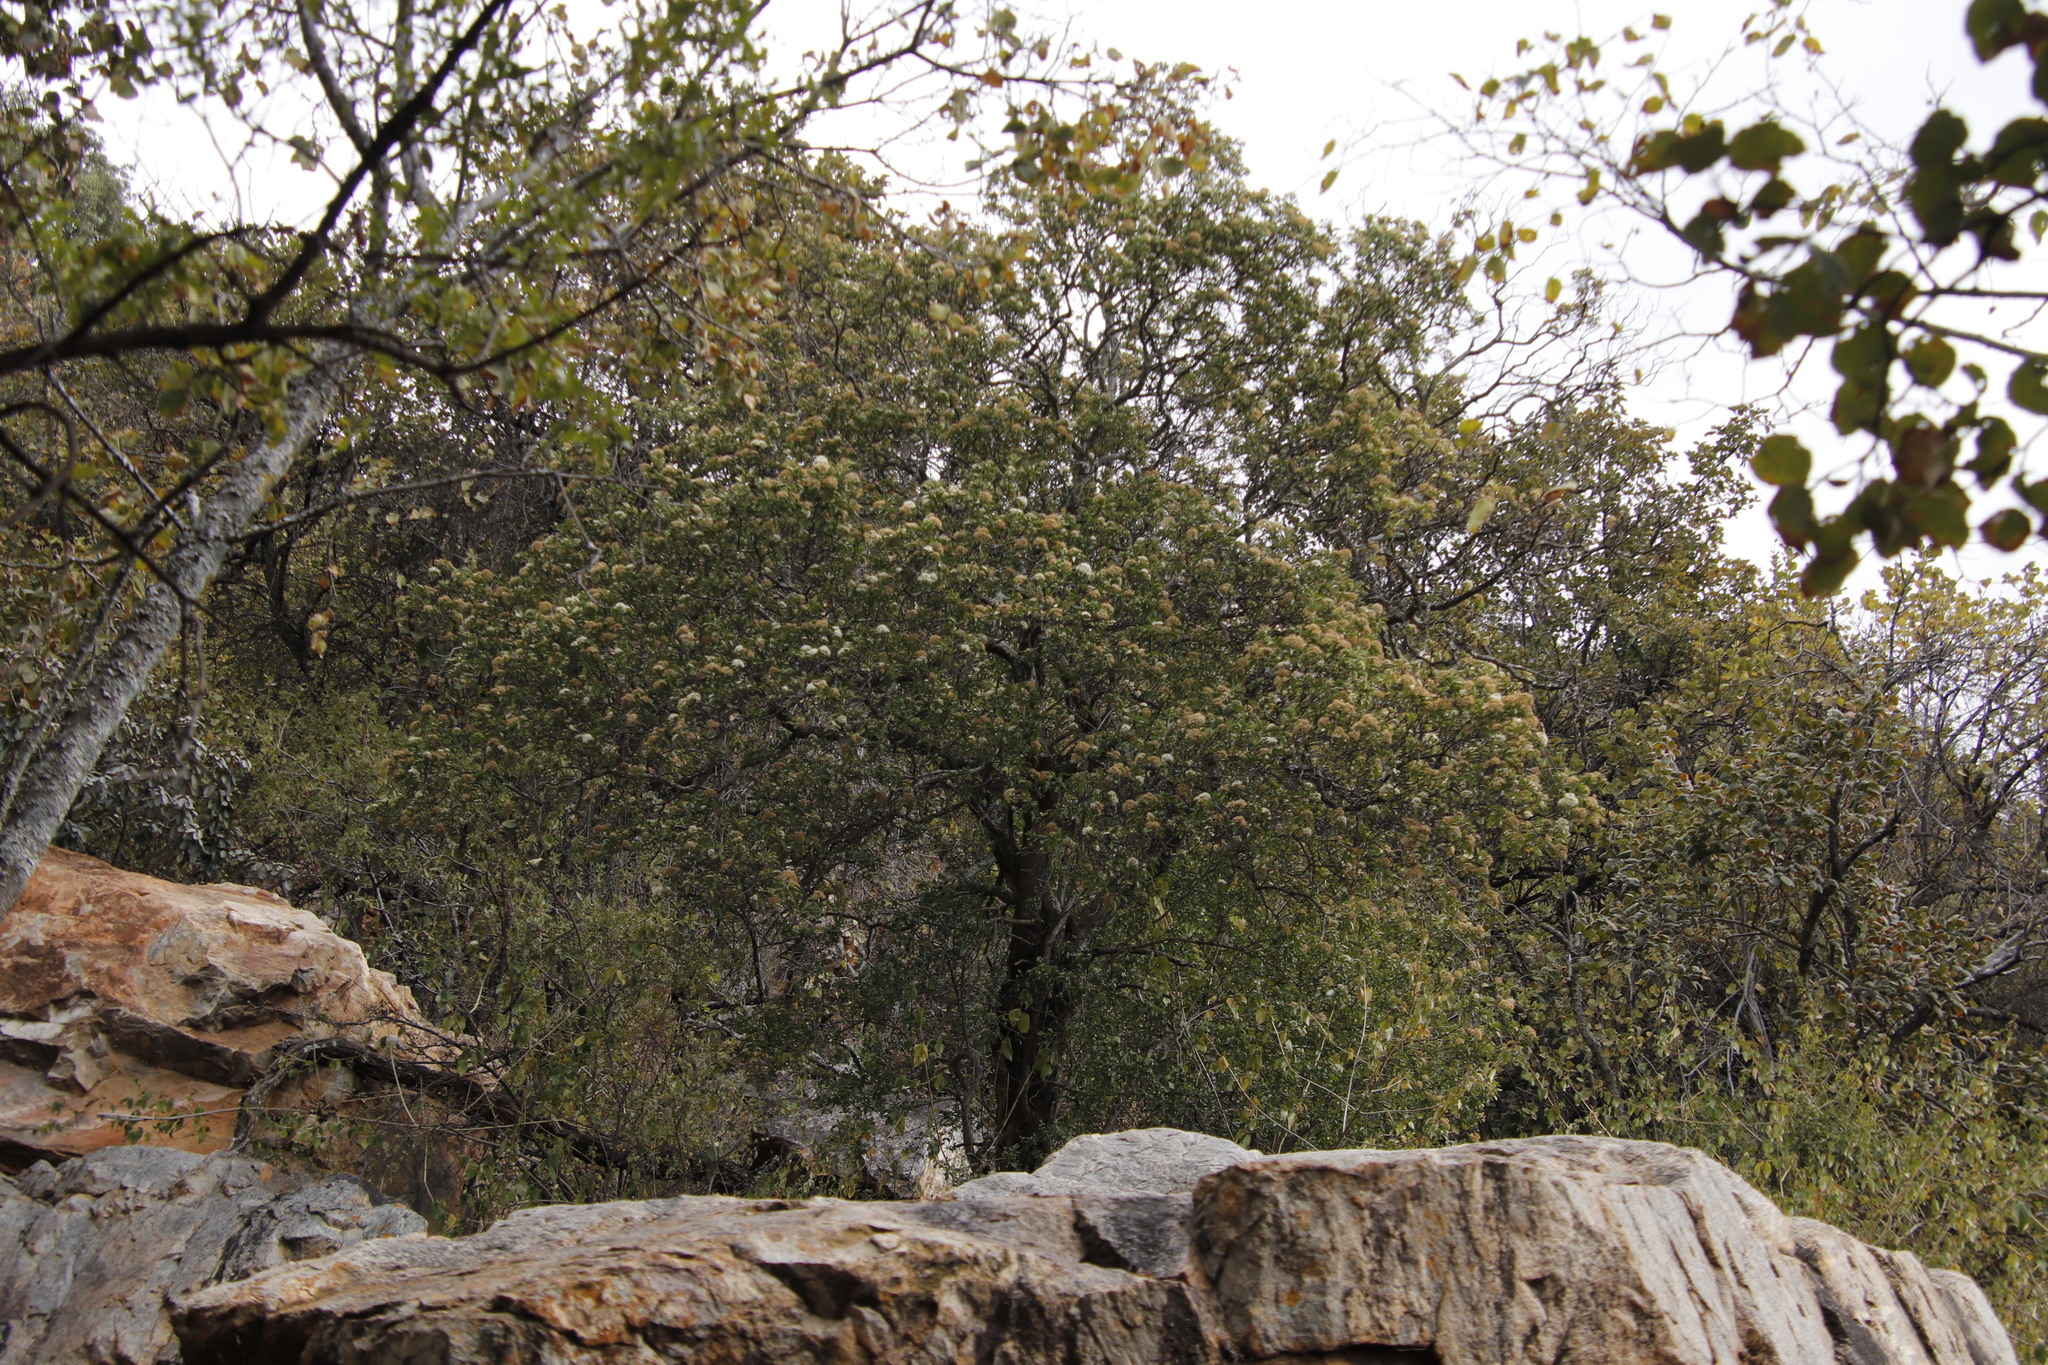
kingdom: Plantae
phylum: Tracheophyta
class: Magnoliopsida
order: Lamiales
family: Stilbaceae
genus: Nuxia
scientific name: Nuxia congesta
